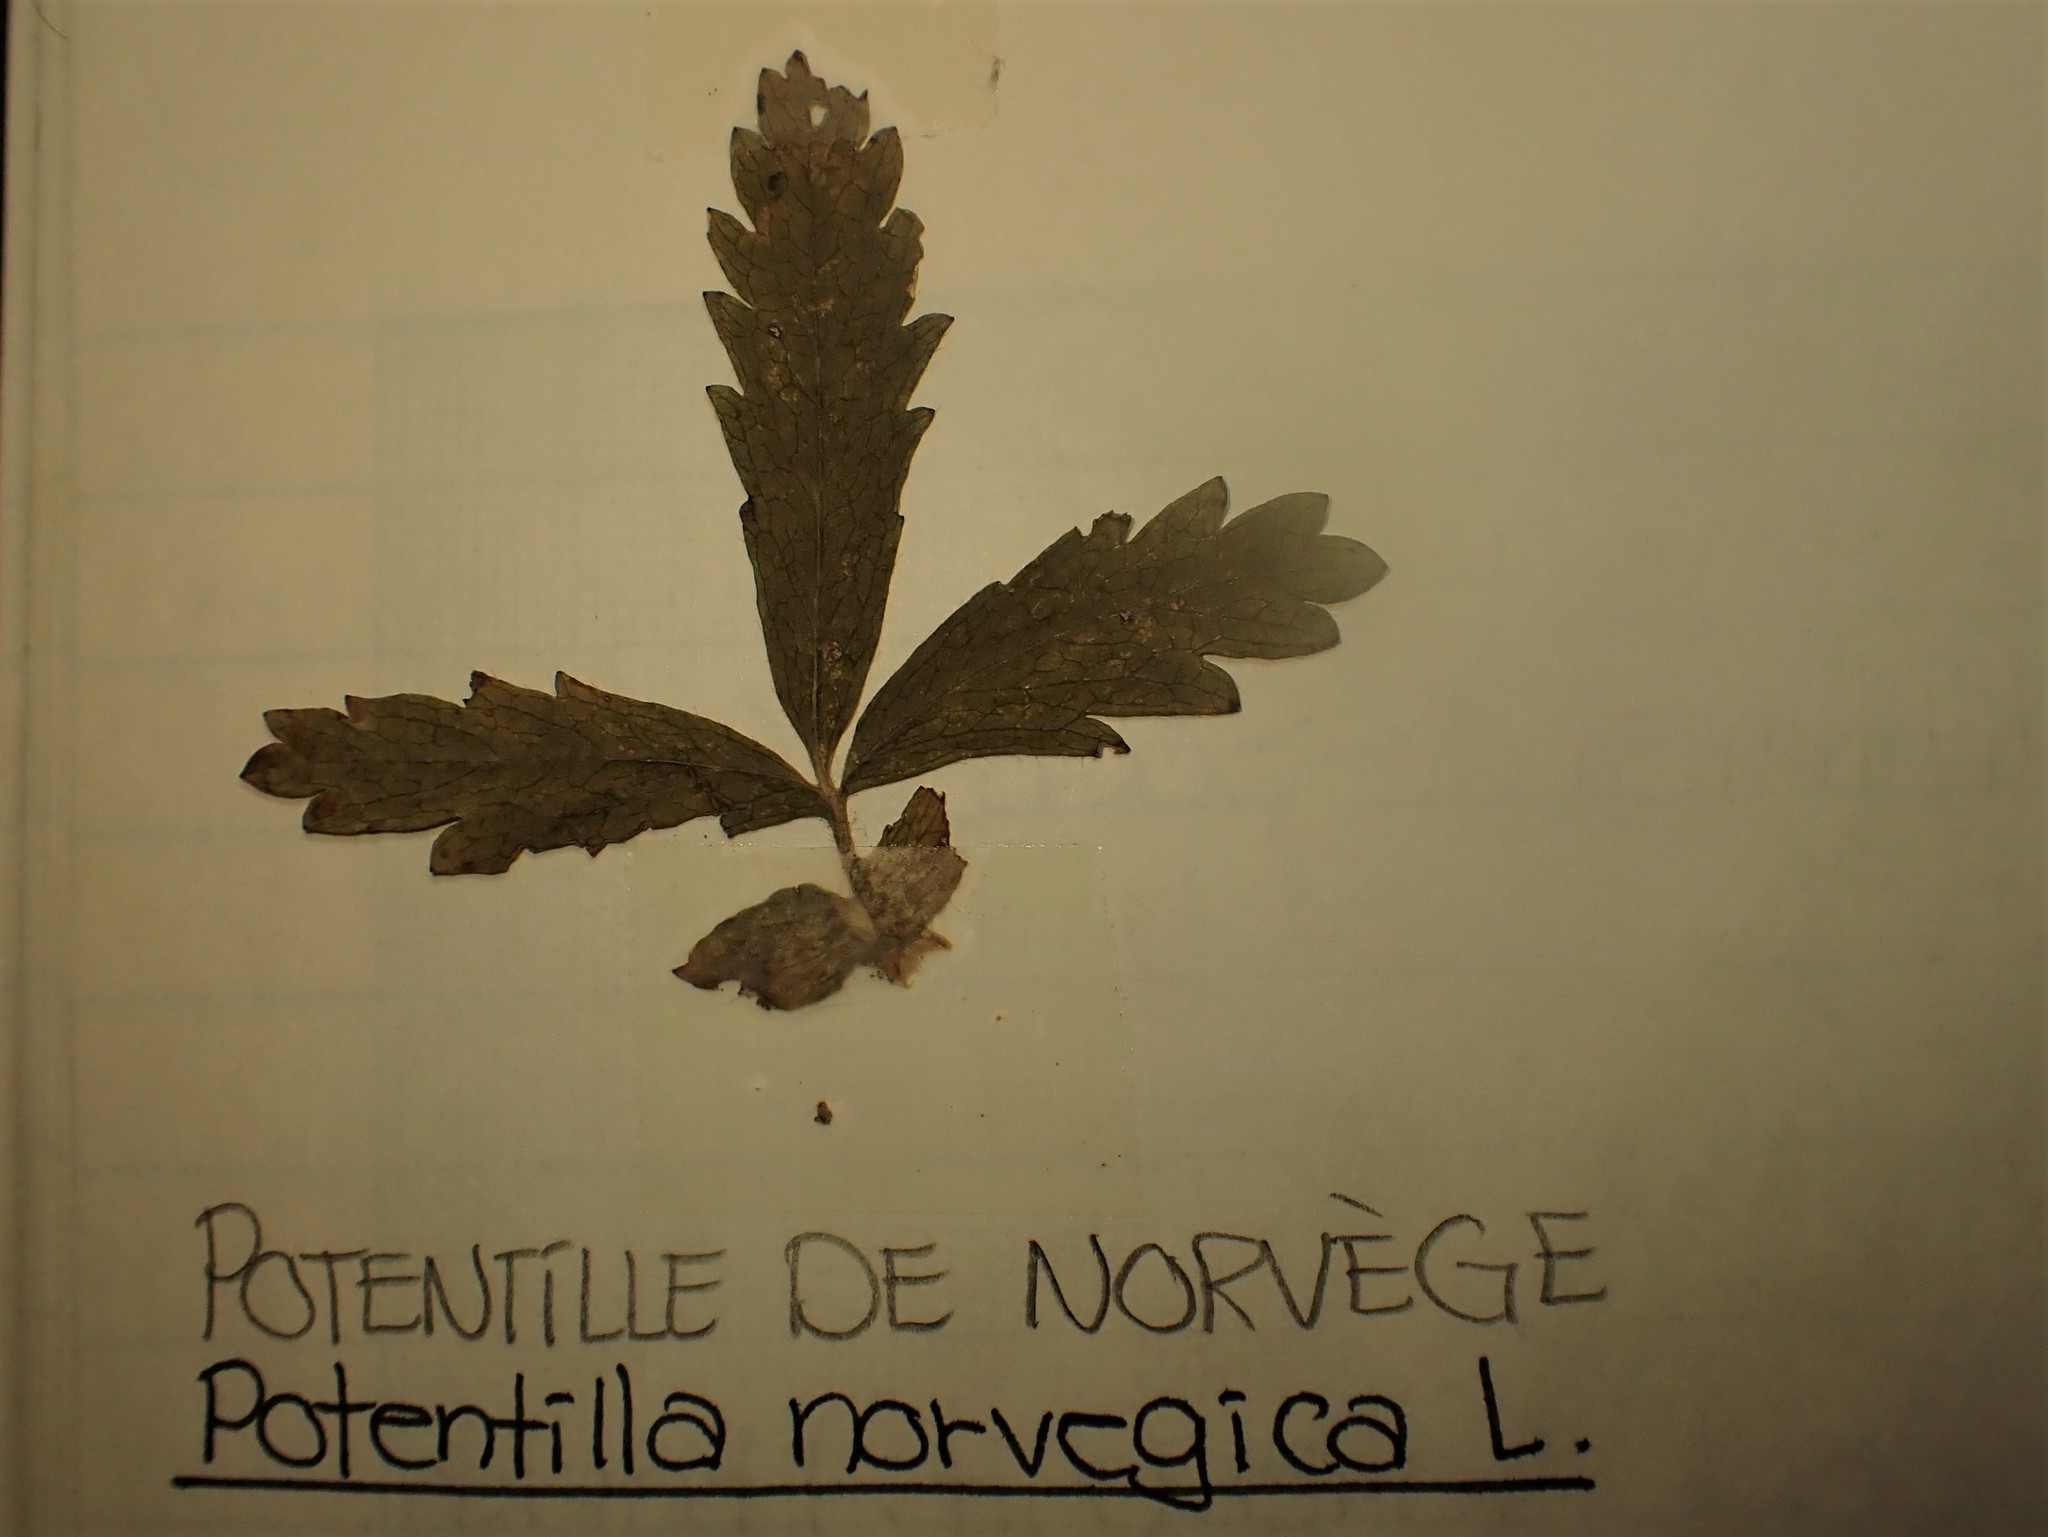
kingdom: Plantae
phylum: Tracheophyta
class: Magnoliopsida
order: Rosales
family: Rosaceae
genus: Potentilla
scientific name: Potentilla norvegica
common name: Ternate-leaved cinquefoil
